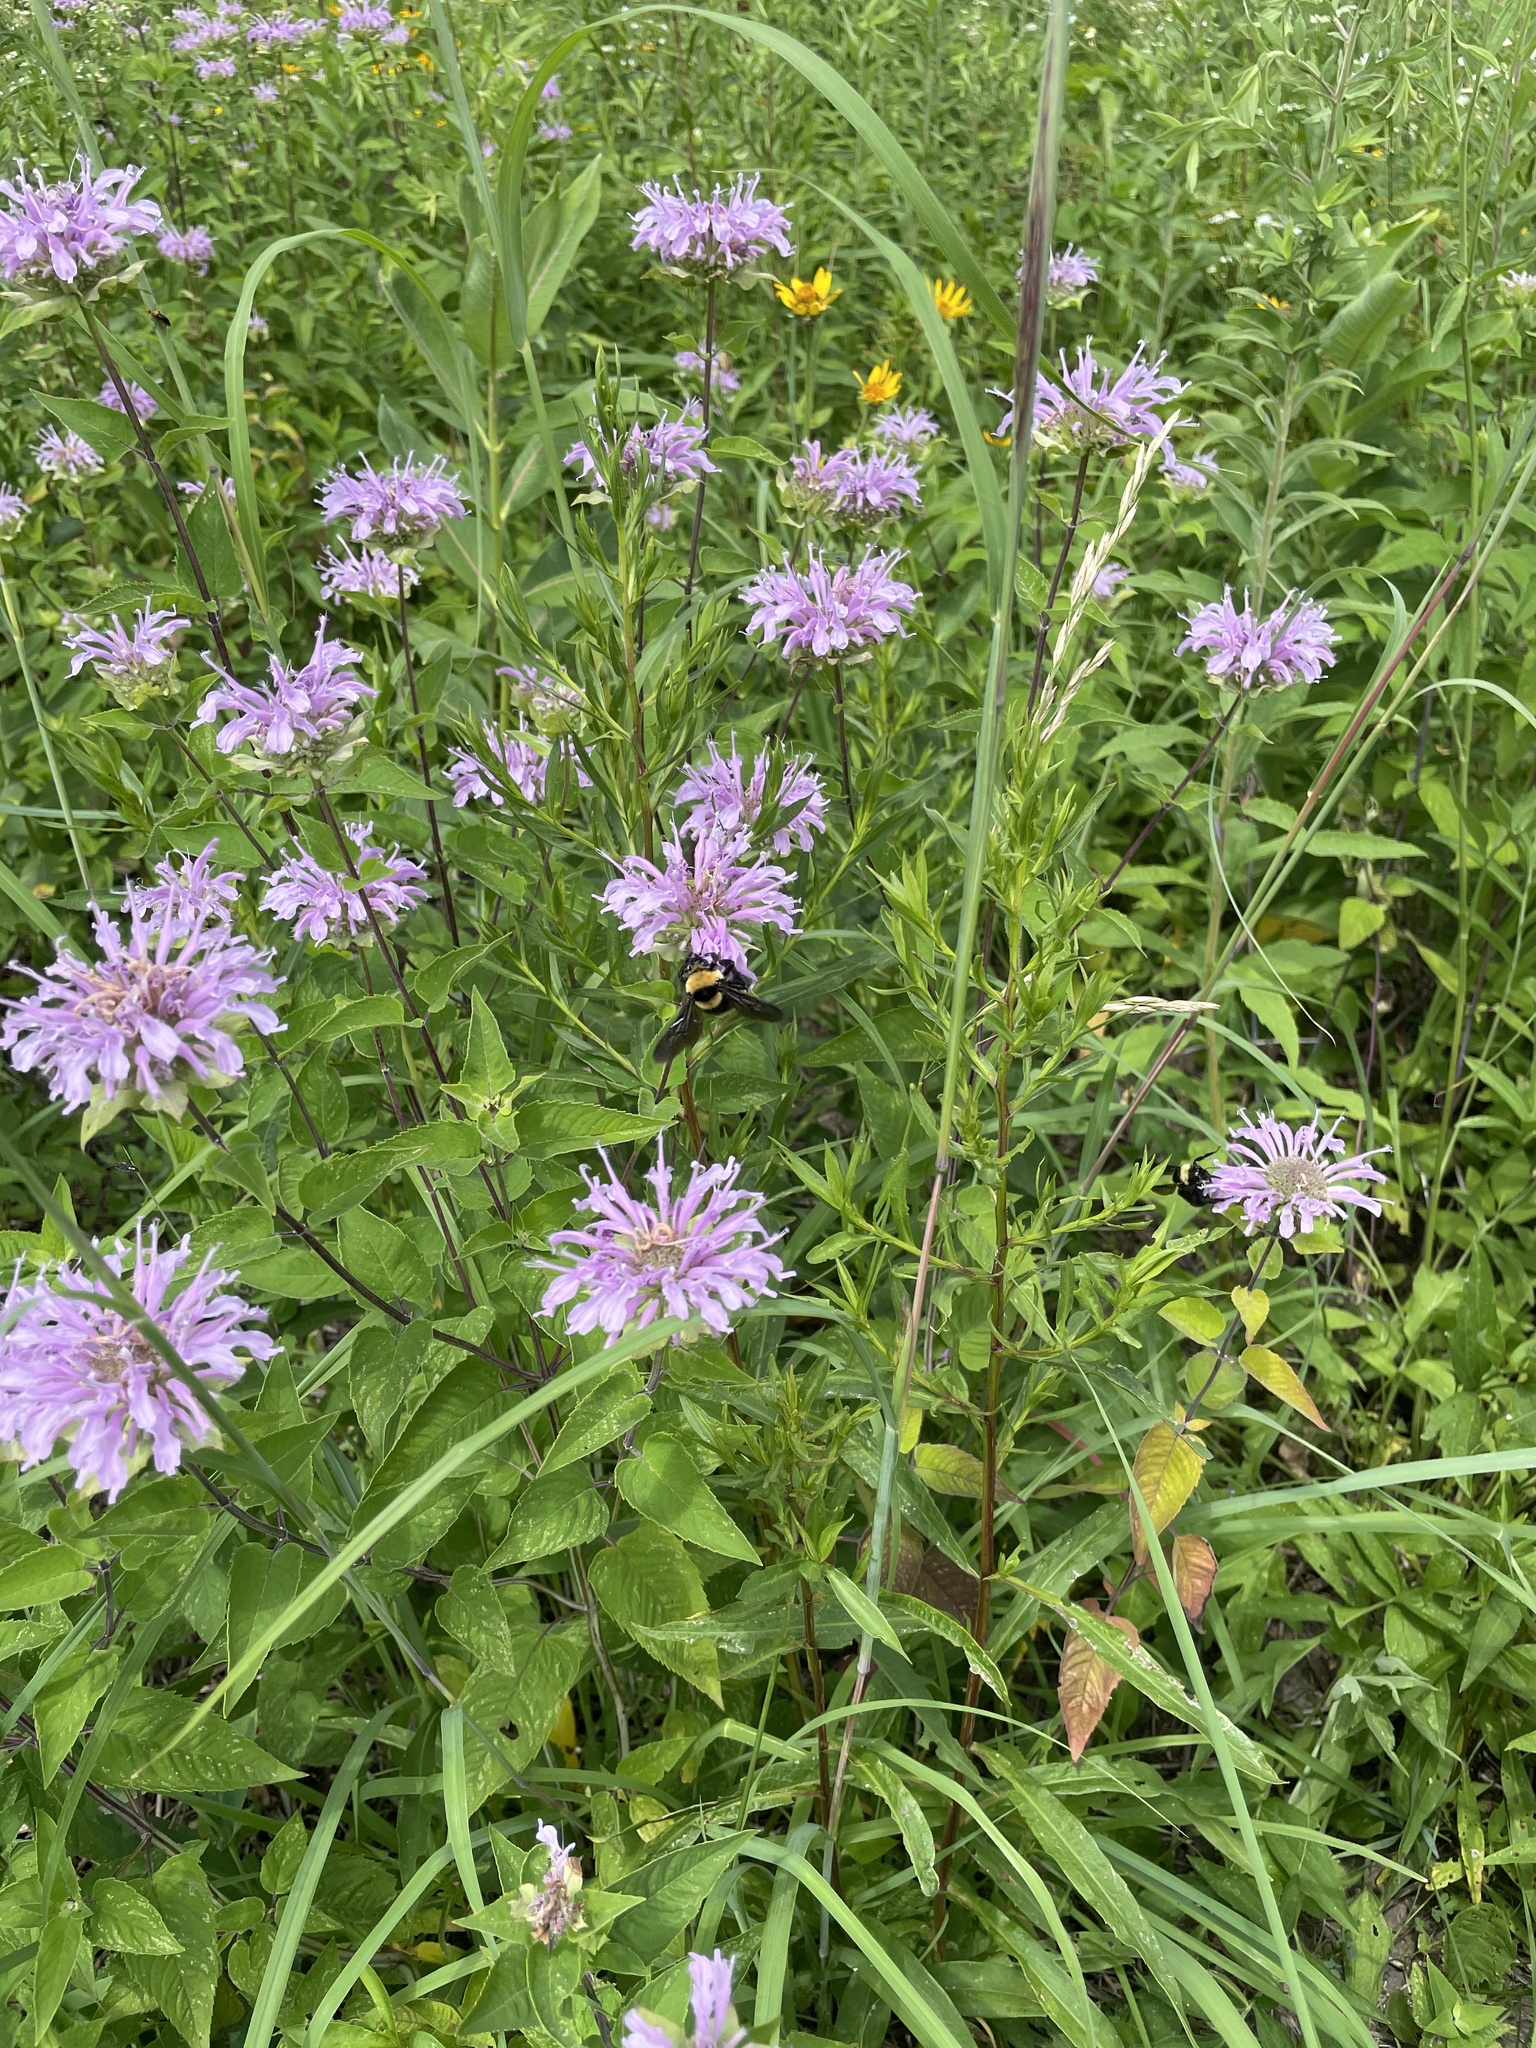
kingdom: Animalia
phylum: Arthropoda
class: Insecta
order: Hymenoptera
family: Apidae
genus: Bombus
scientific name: Bombus auricomus
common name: Black and gold bumble bee
